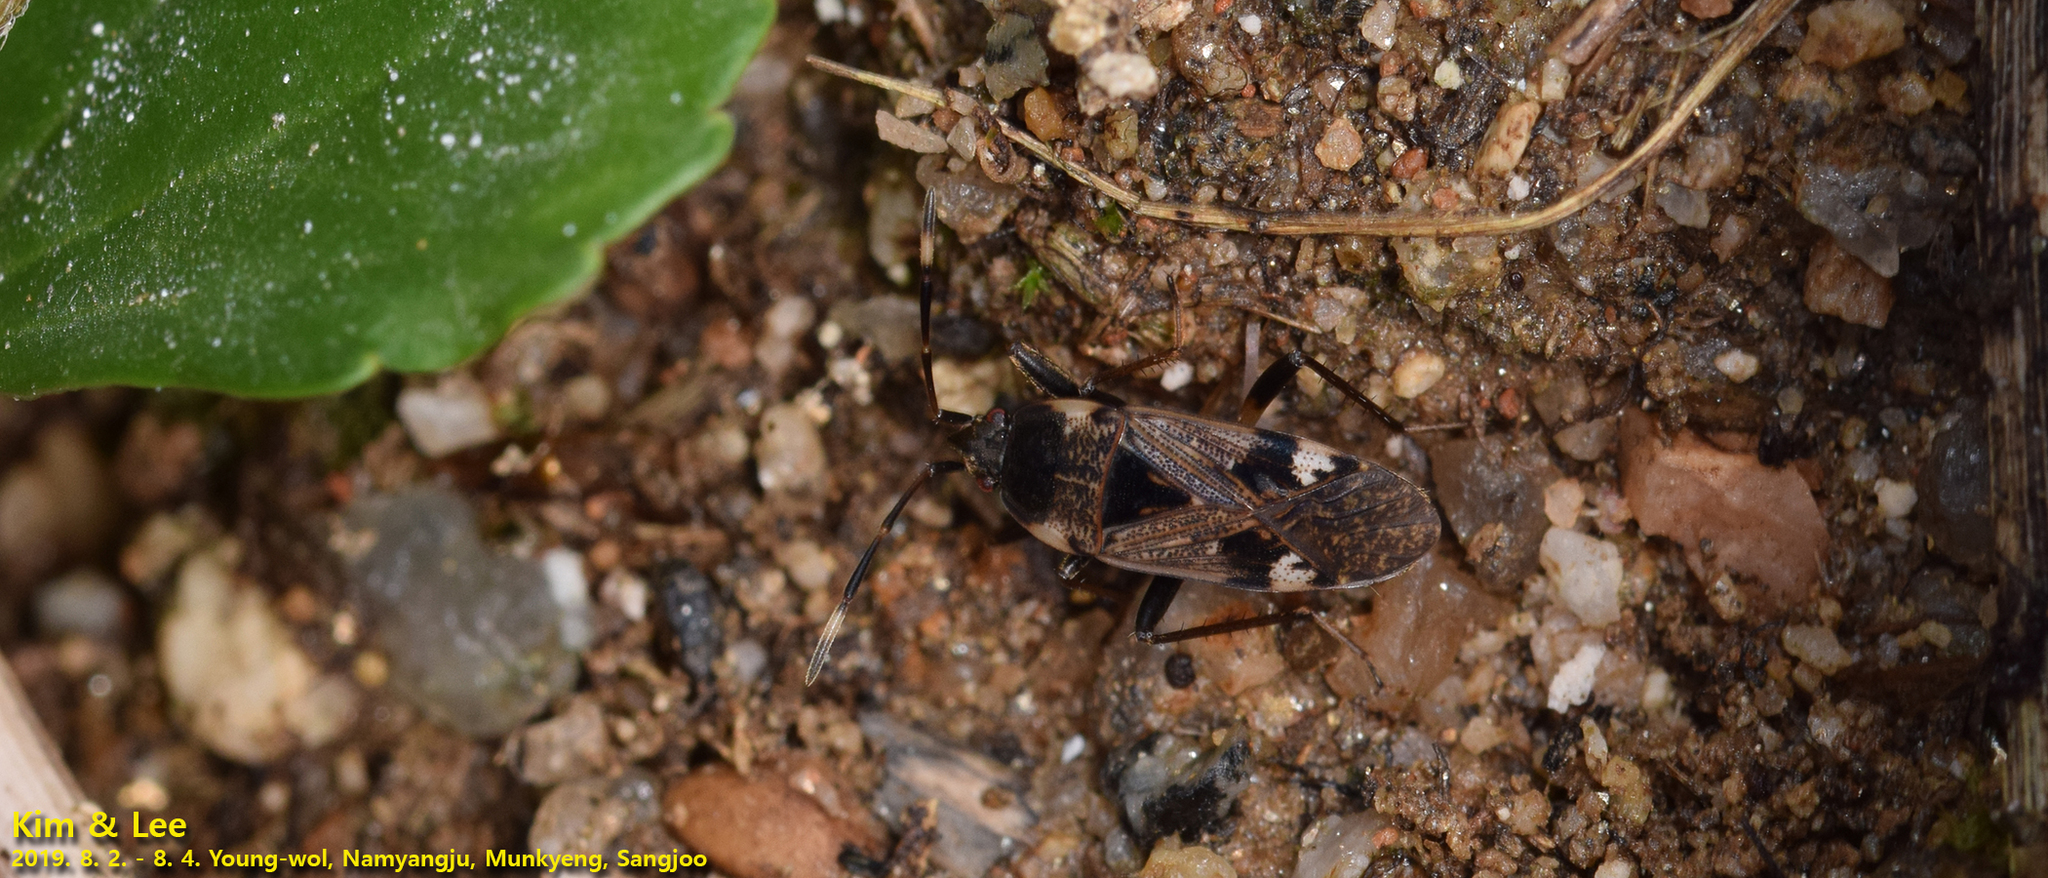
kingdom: Animalia
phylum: Arthropoda
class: Insecta
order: Hemiptera
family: Rhyparochromidae
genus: Panaorus
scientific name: Panaorus csikii
